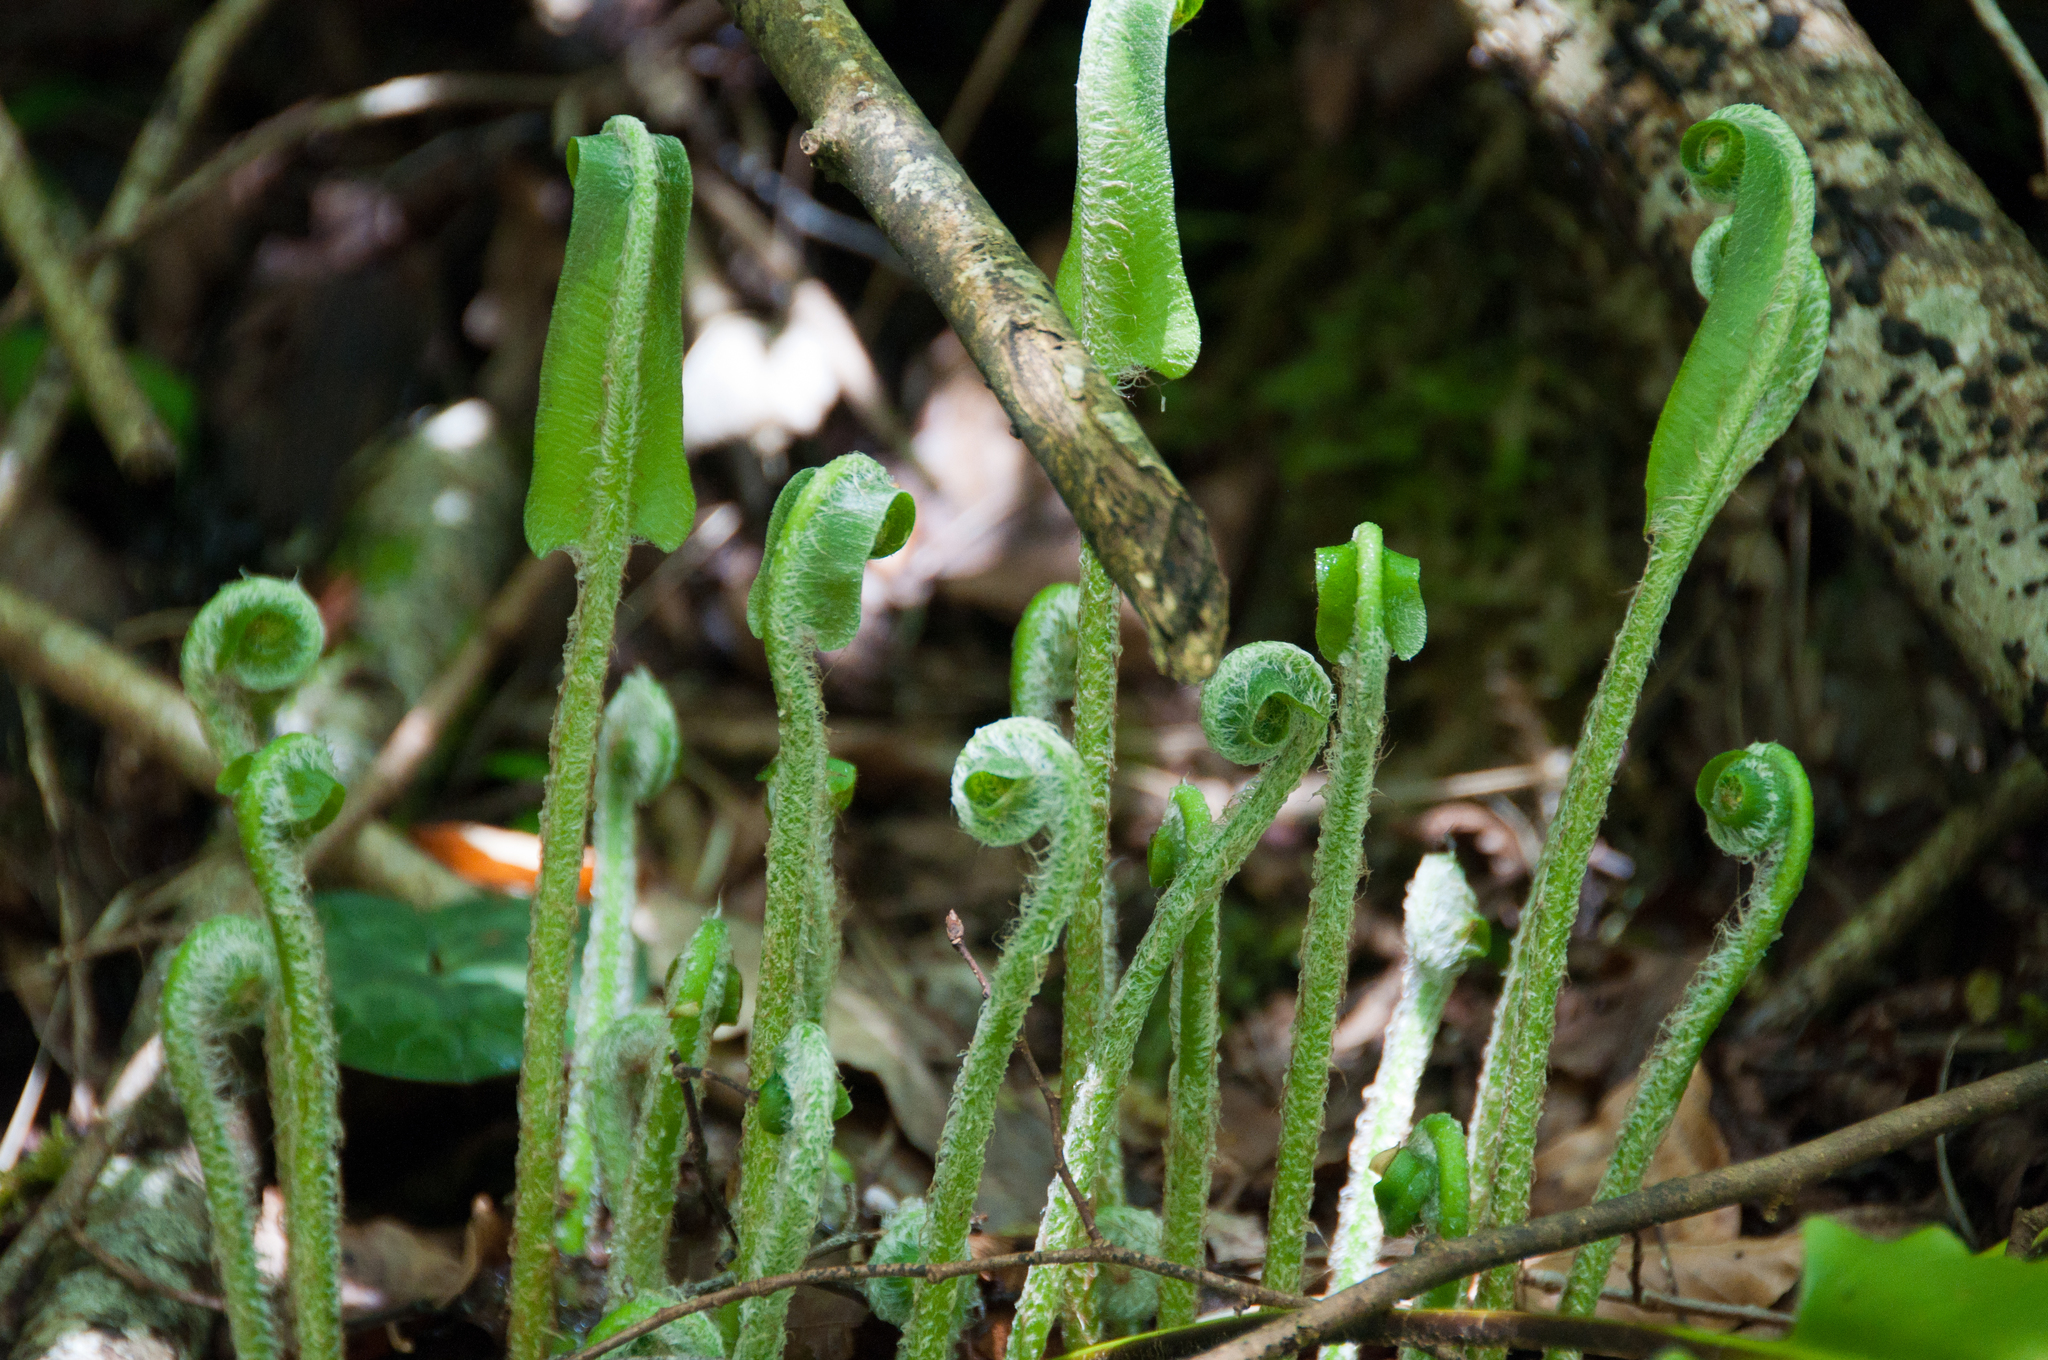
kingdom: Plantae
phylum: Tracheophyta
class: Polypodiopsida
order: Polypodiales
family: Aspleniaceae
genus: Asplenium
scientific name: Asplenium scolopendrium
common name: Hart's-tongue fern
